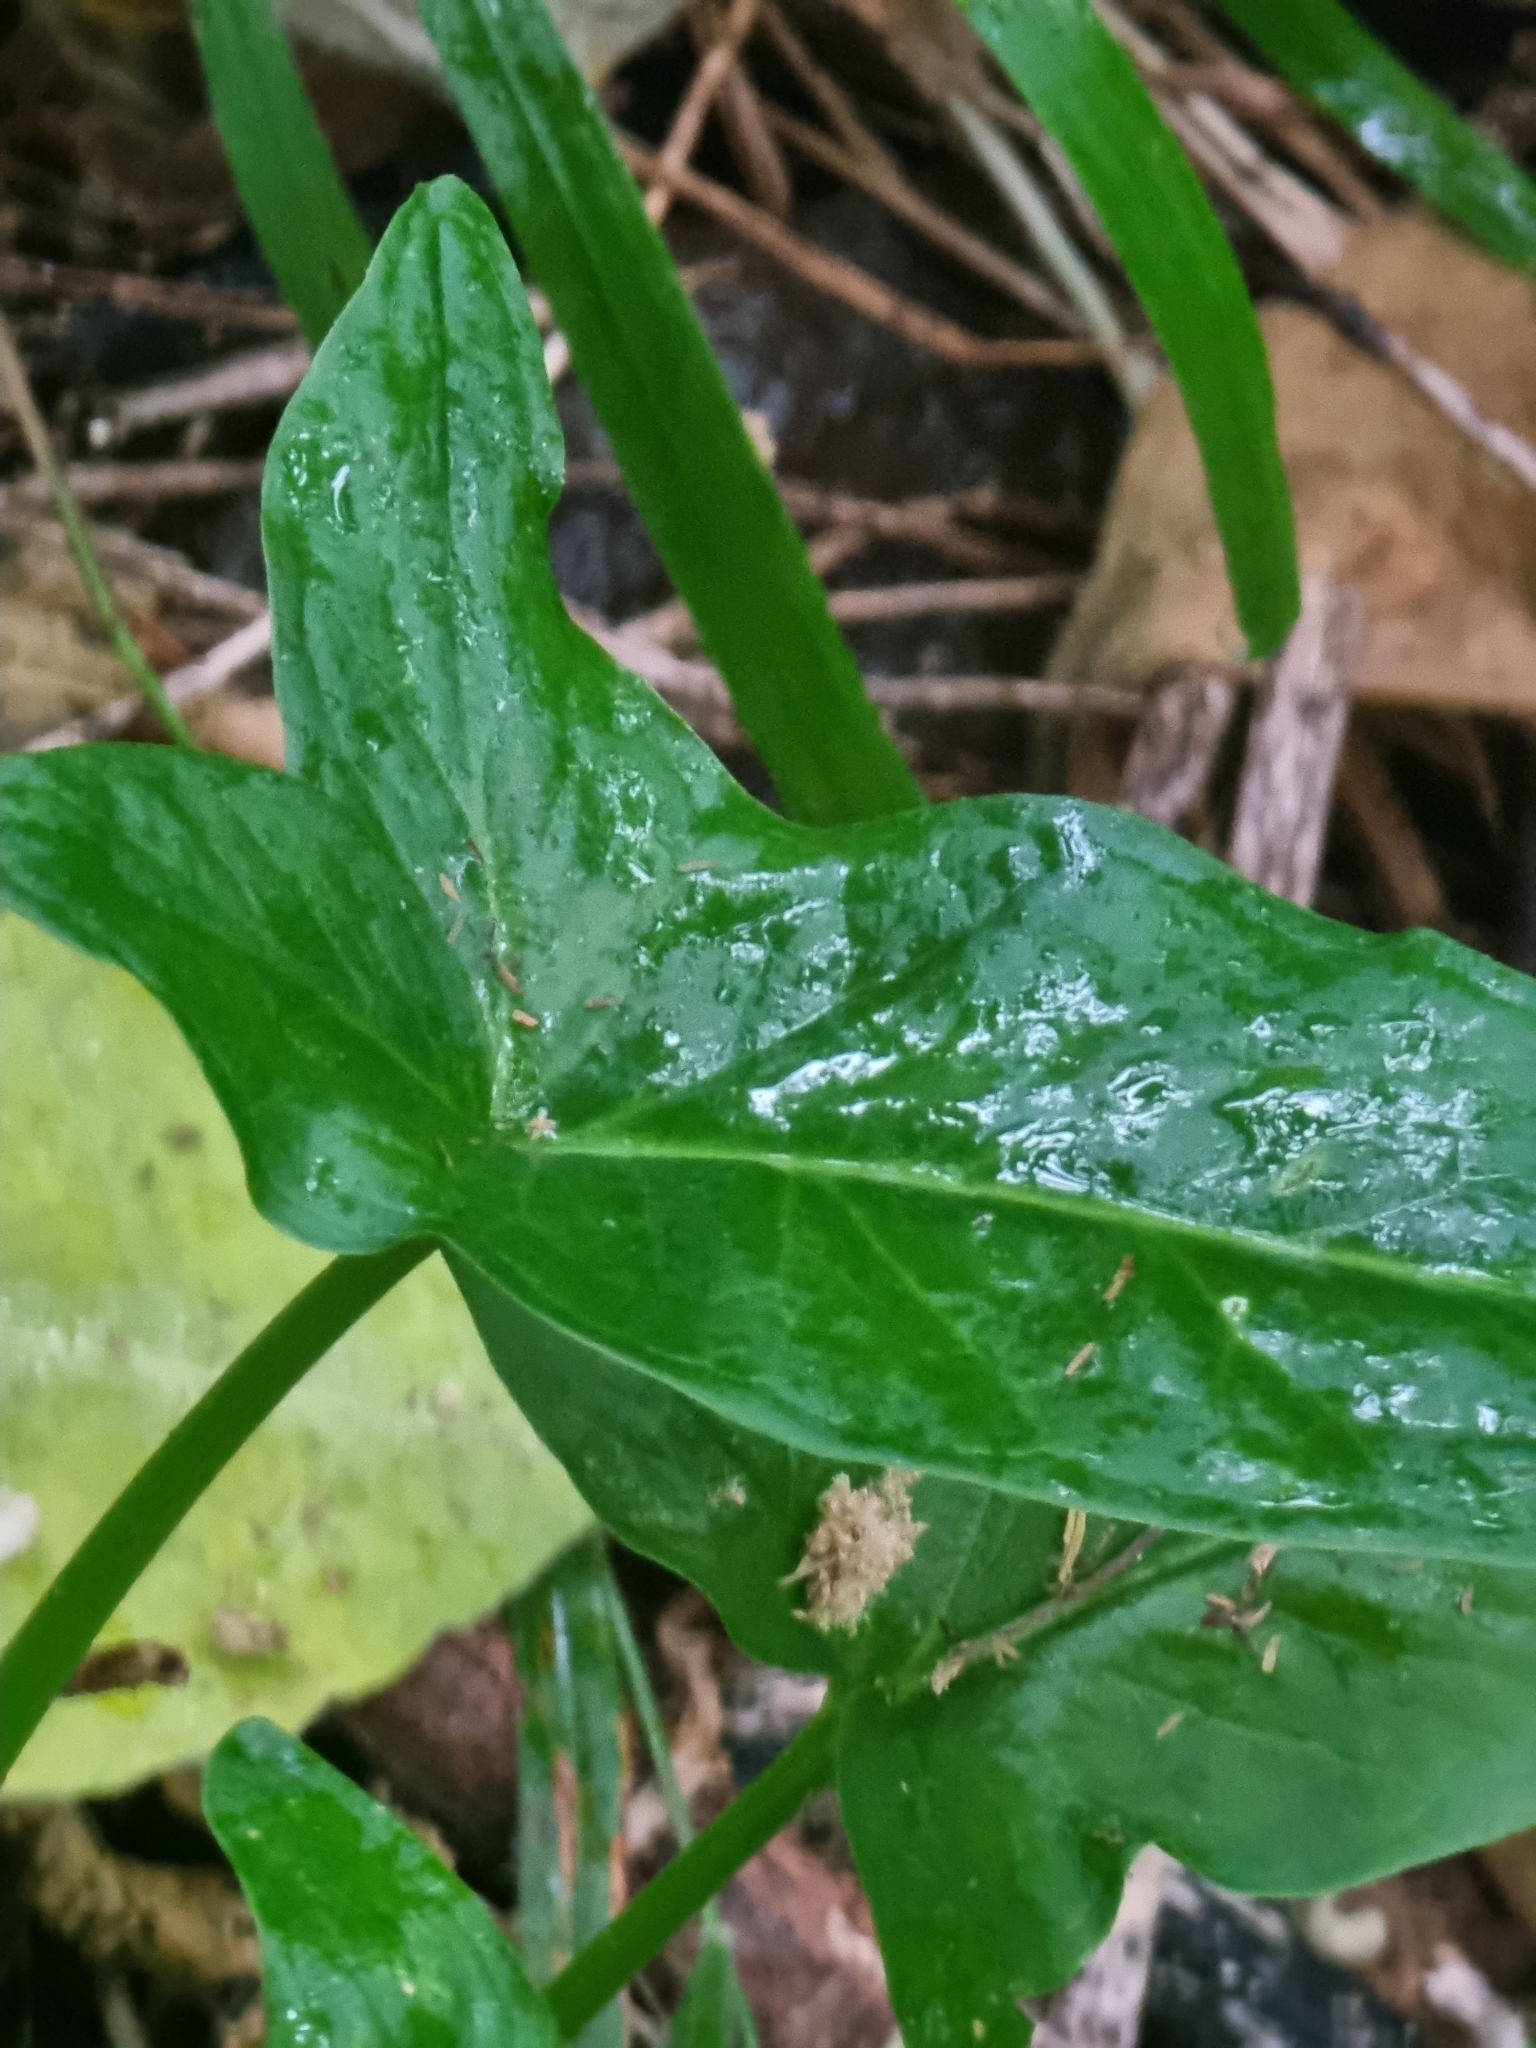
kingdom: Plantae
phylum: Tracheophyta
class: Liliopsida
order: Alismatales
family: Araceae
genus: Arum
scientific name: Arum italicum
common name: Italian lords-and-ladies
